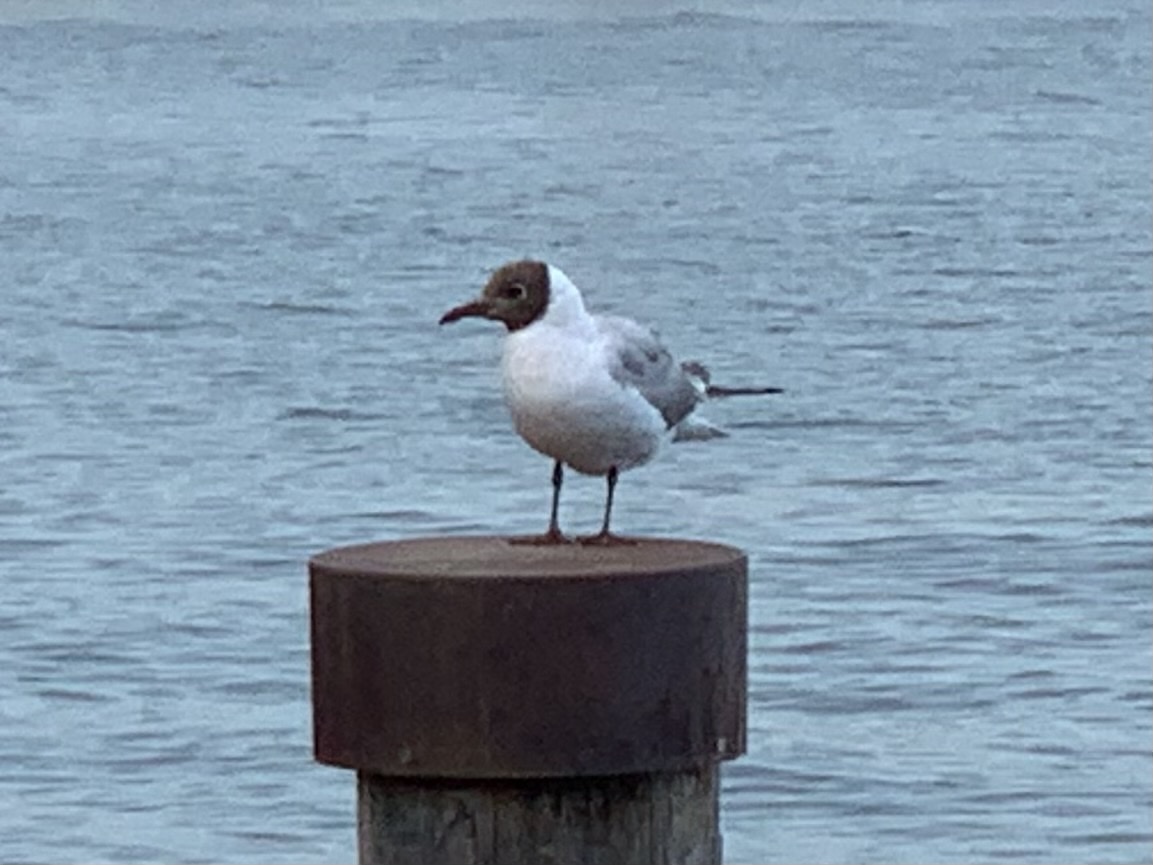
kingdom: Animalia
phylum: Chordata
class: Aves
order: Charadriiformes
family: Laridae
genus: Chroicocephalus
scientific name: Chroicocephalus ridibundus
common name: Black-headed gull
